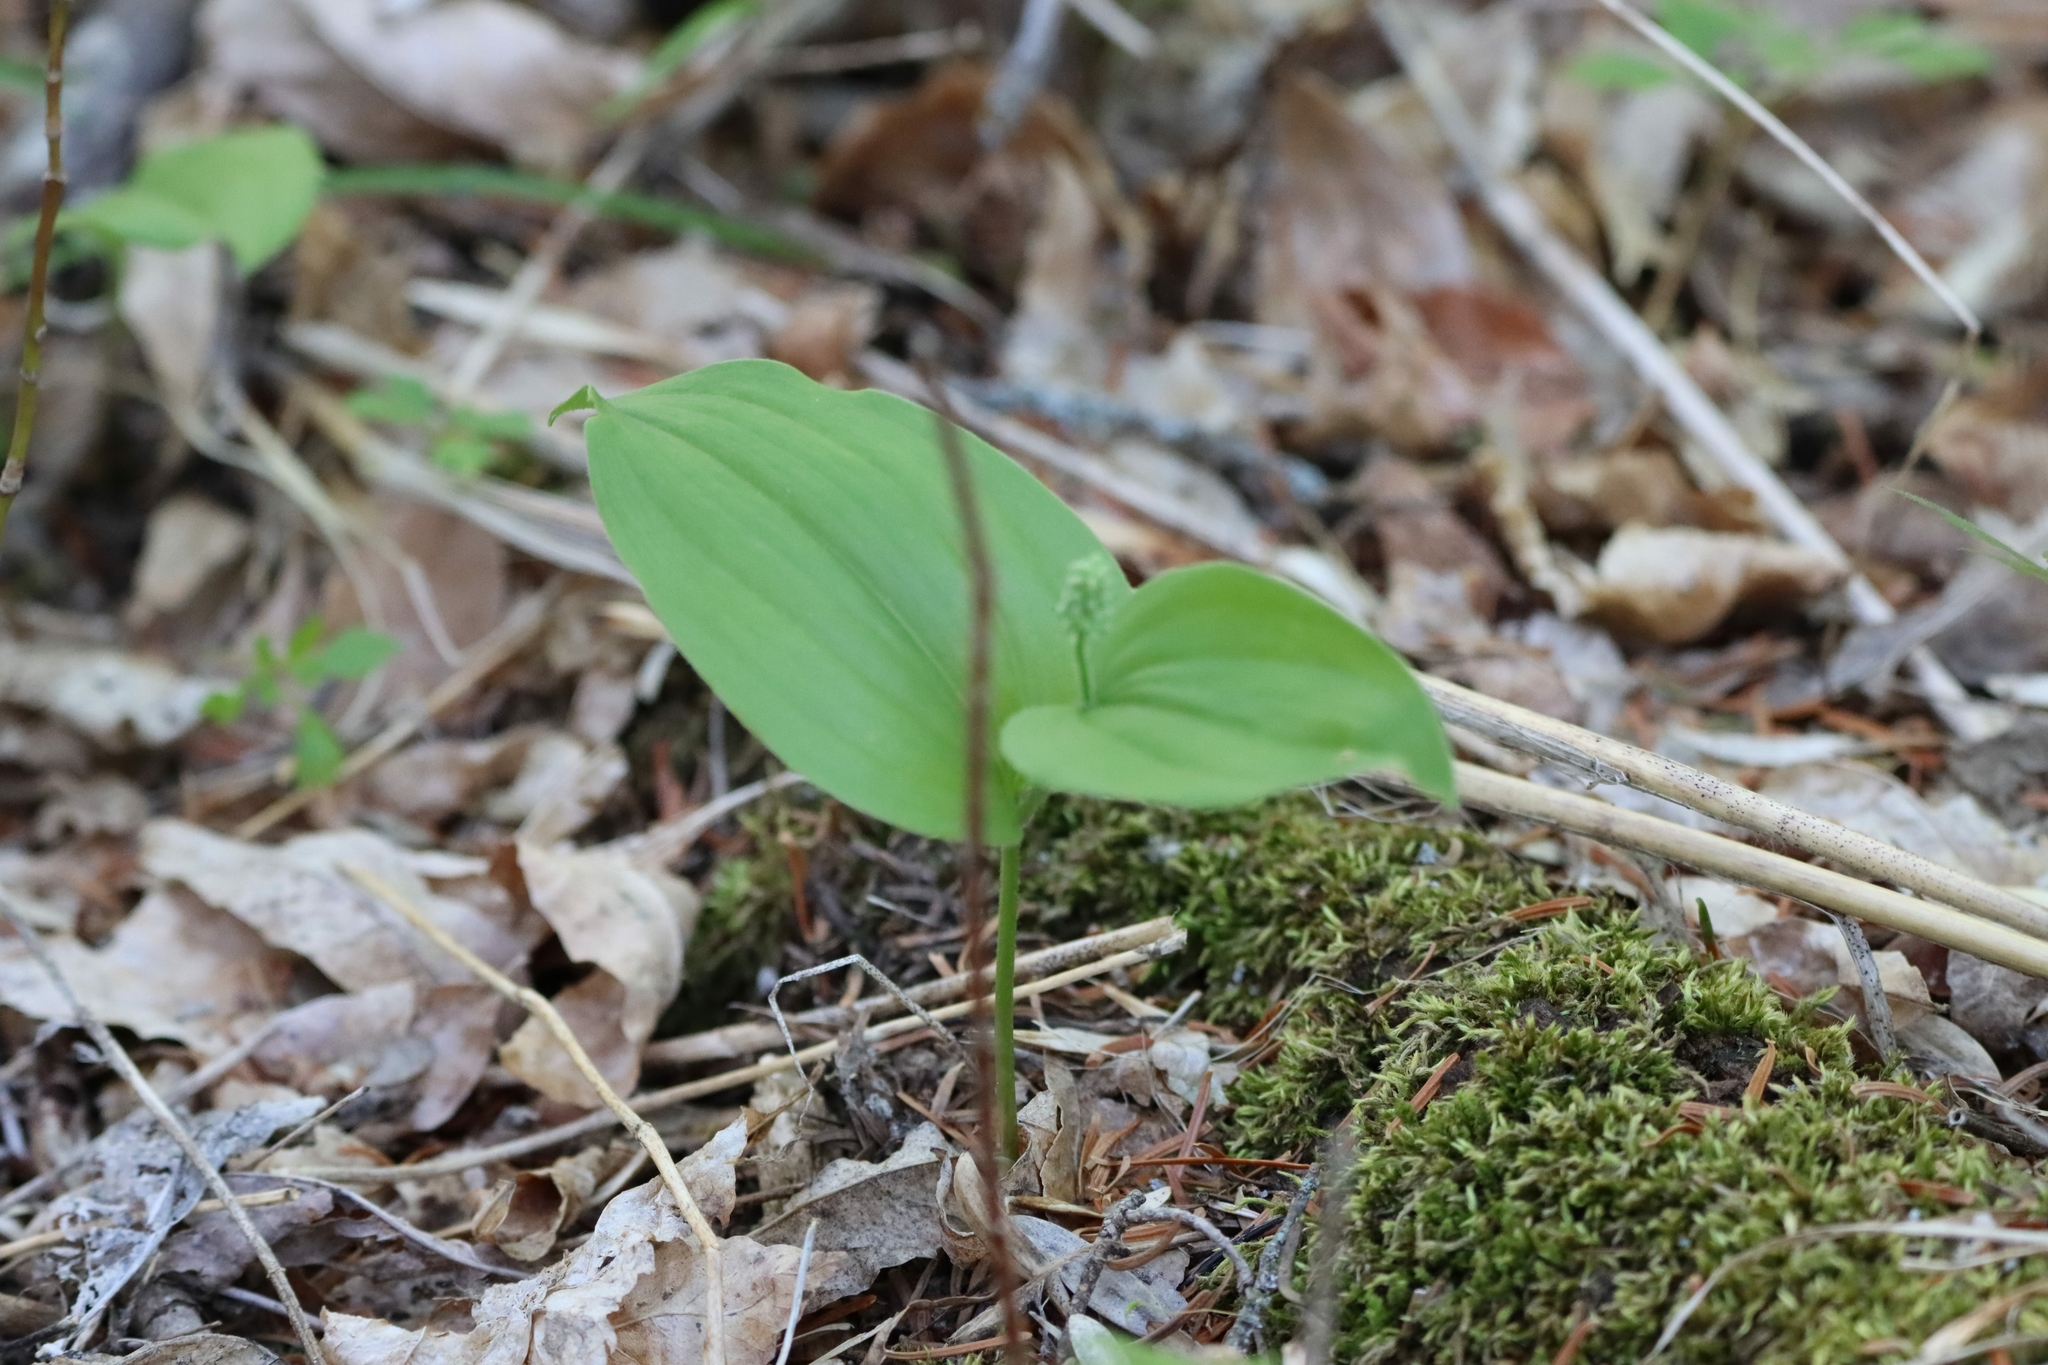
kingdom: Plantae
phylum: Tracheophyta
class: Liliopsida
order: Asparagales
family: Asparagaceae
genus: Maianthemum
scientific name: Maianthemum canadense
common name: False lily-of-the-valley
